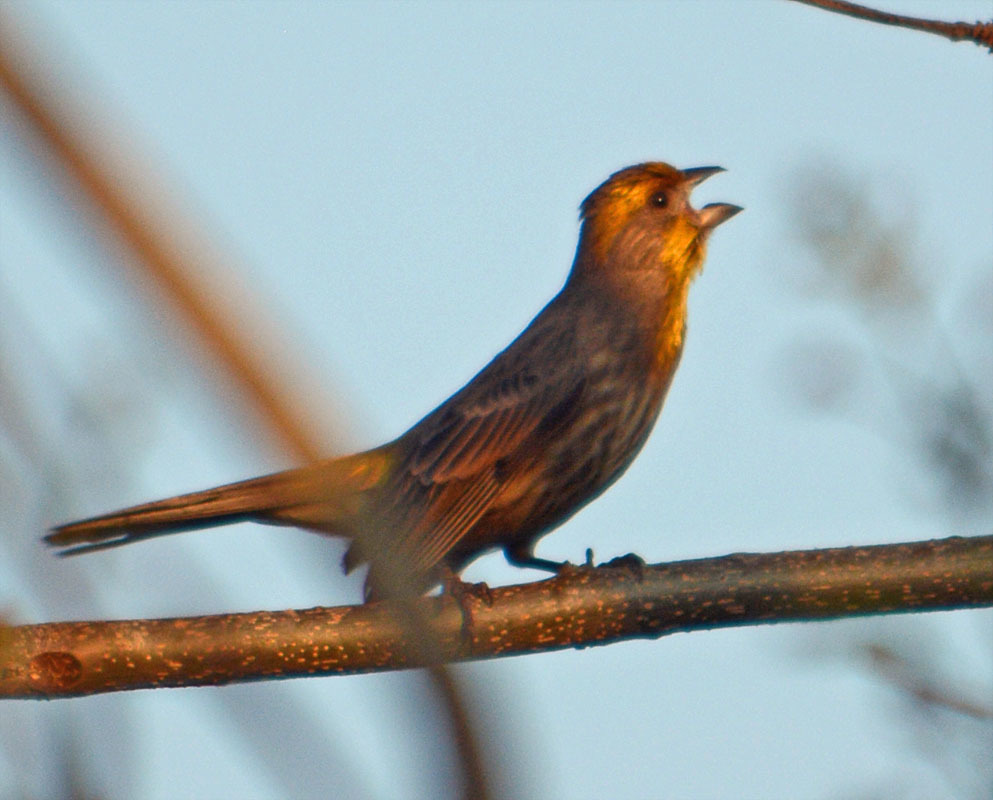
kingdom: Animalia
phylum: Chordata
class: Aves
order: Passeriformes
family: Fringillidae
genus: Haemorhous
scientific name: Haemorhous mexicanus
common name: House finch
